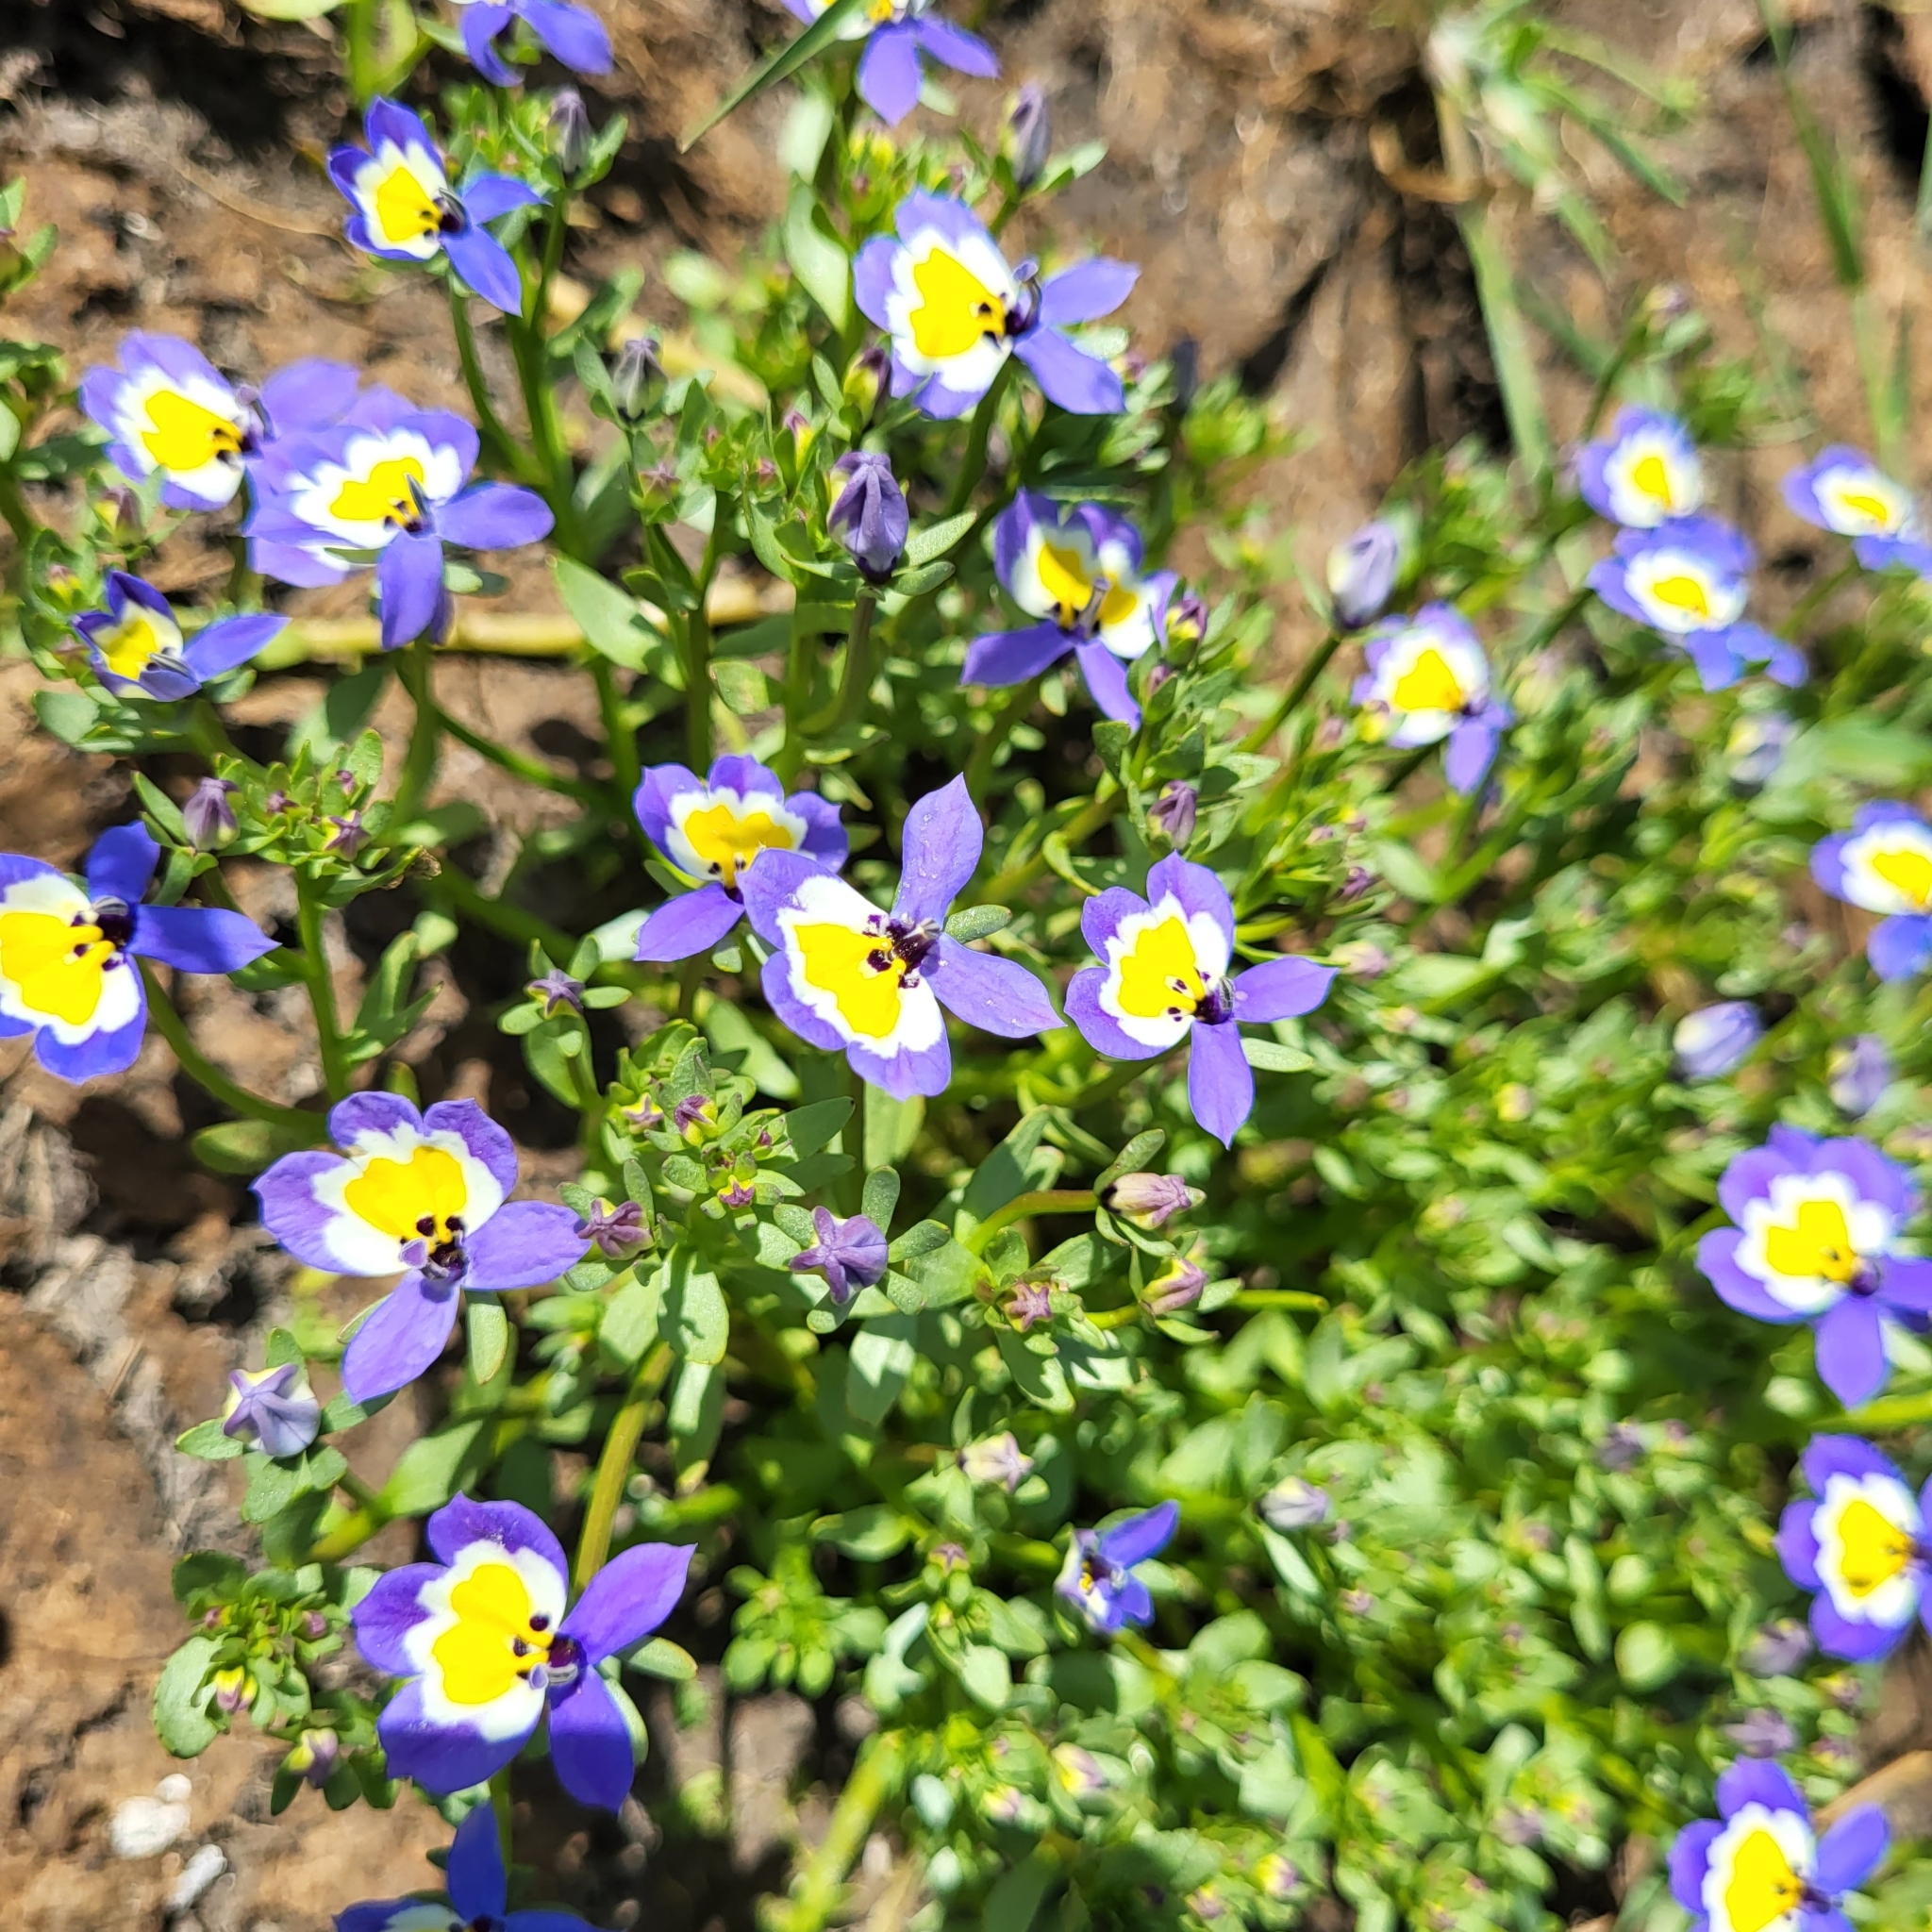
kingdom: Plantae
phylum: Tracheophyta
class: Magnoliopsida
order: Asterales
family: Campanulaceae
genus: Downingia
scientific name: Downingia pulchella
